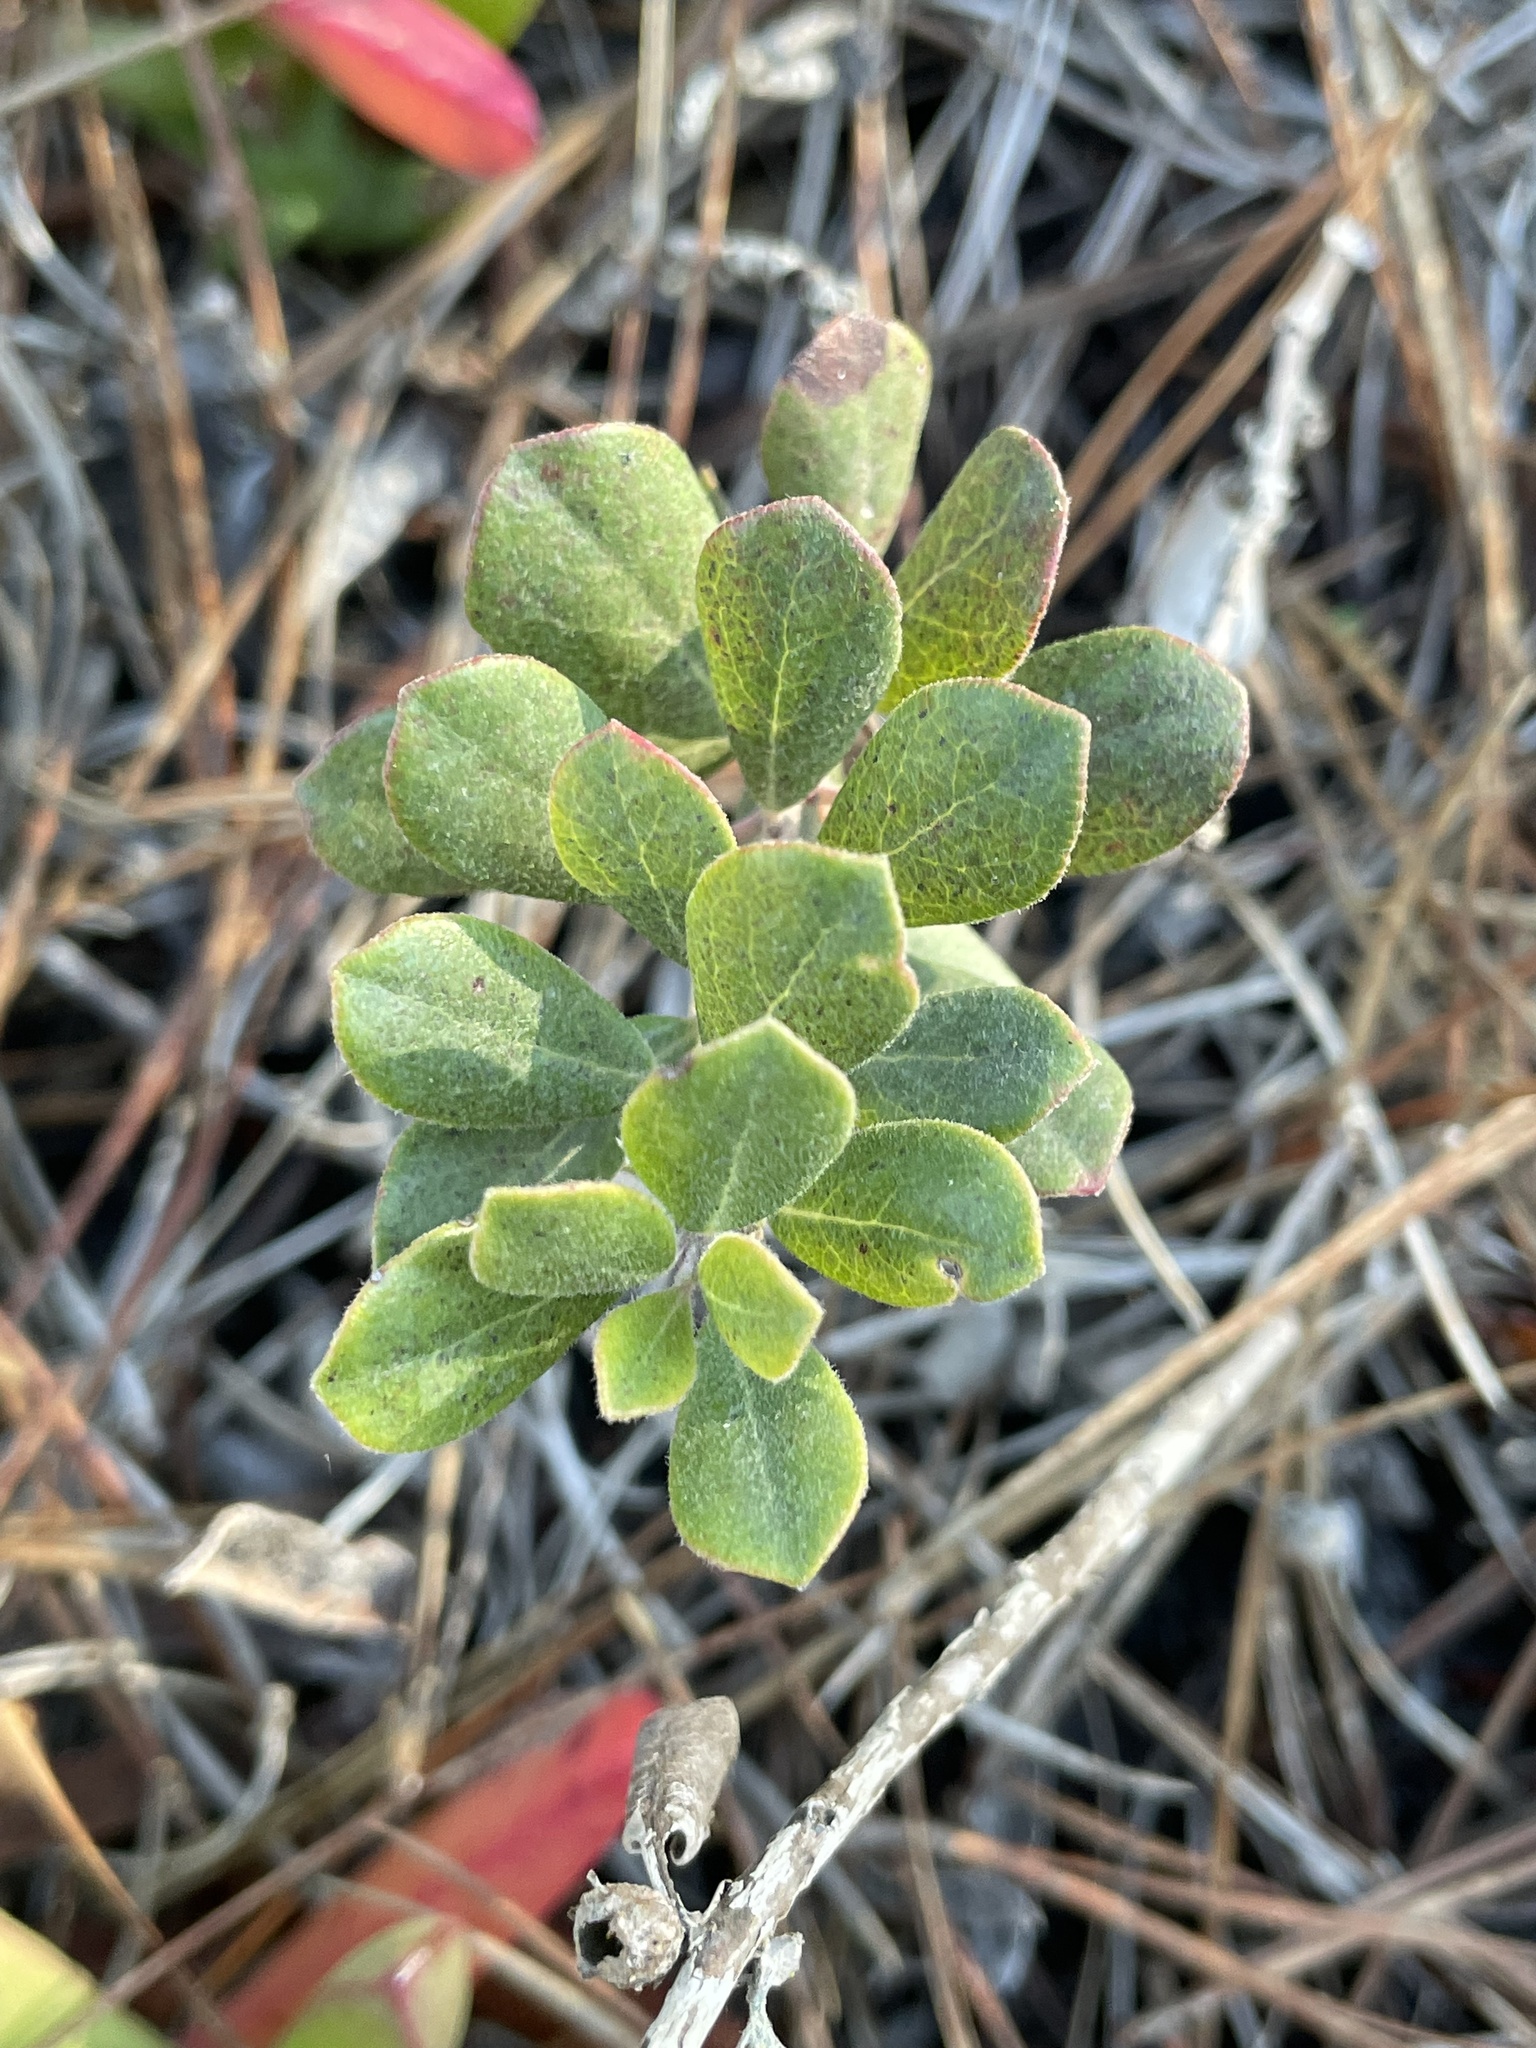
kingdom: Plantae
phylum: Tracheophyta
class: Magnoliopsida
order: Ericales
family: Ericaceae
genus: Arctostaphylos
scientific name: Arctostaphylos pumila
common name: Sandmat manzanita
